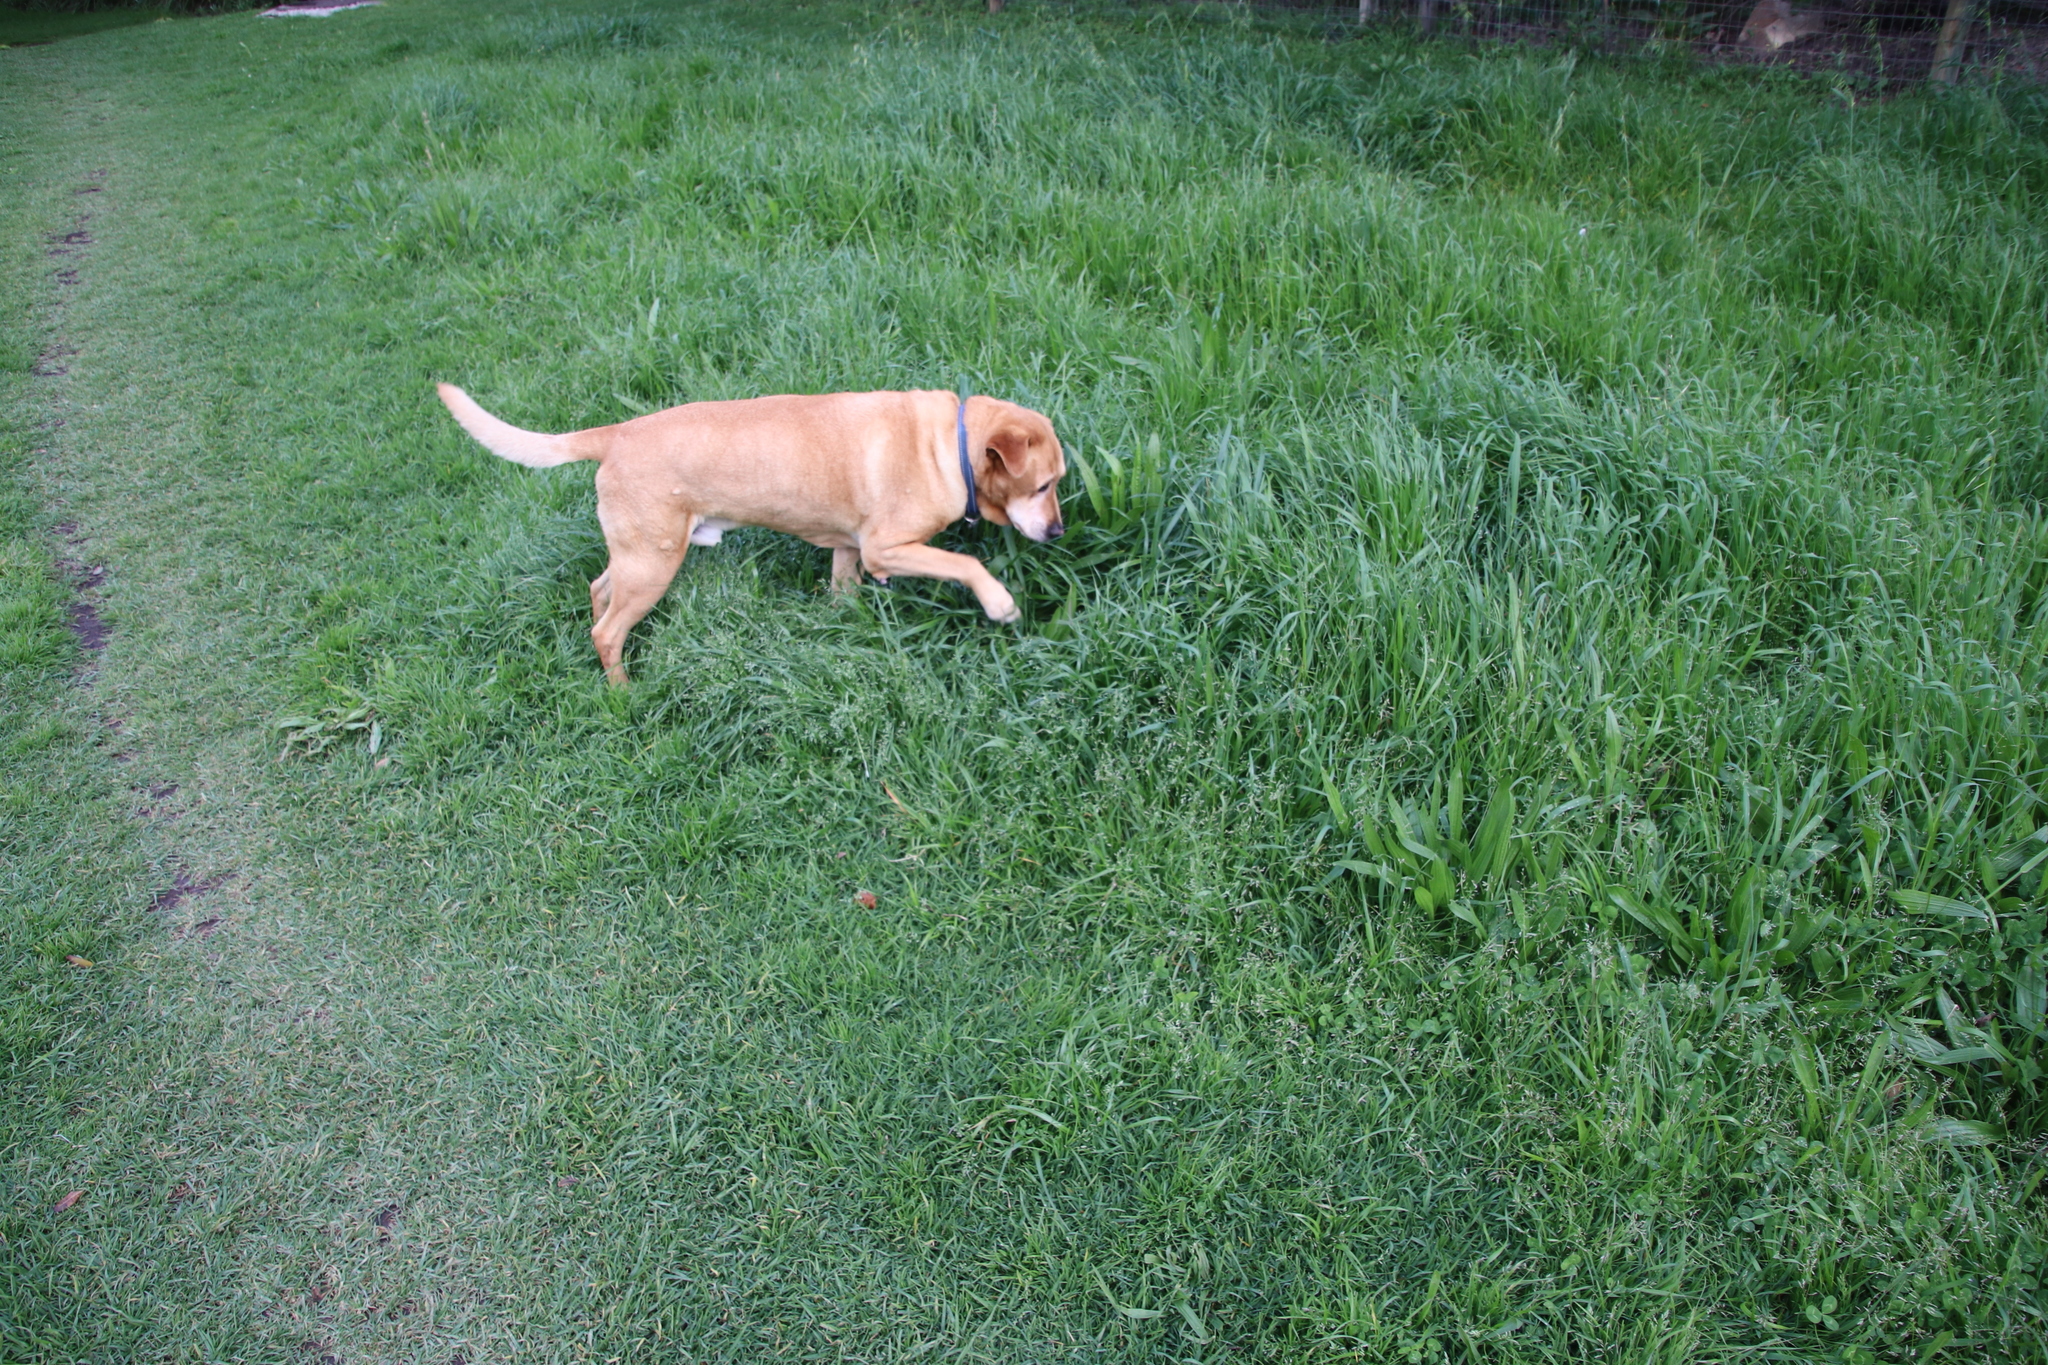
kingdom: Plantae
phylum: Tracheophyta
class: Liliopsida
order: Poales
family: Poaceae
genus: Poa
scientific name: Poa annua
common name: Annual bluegrass
